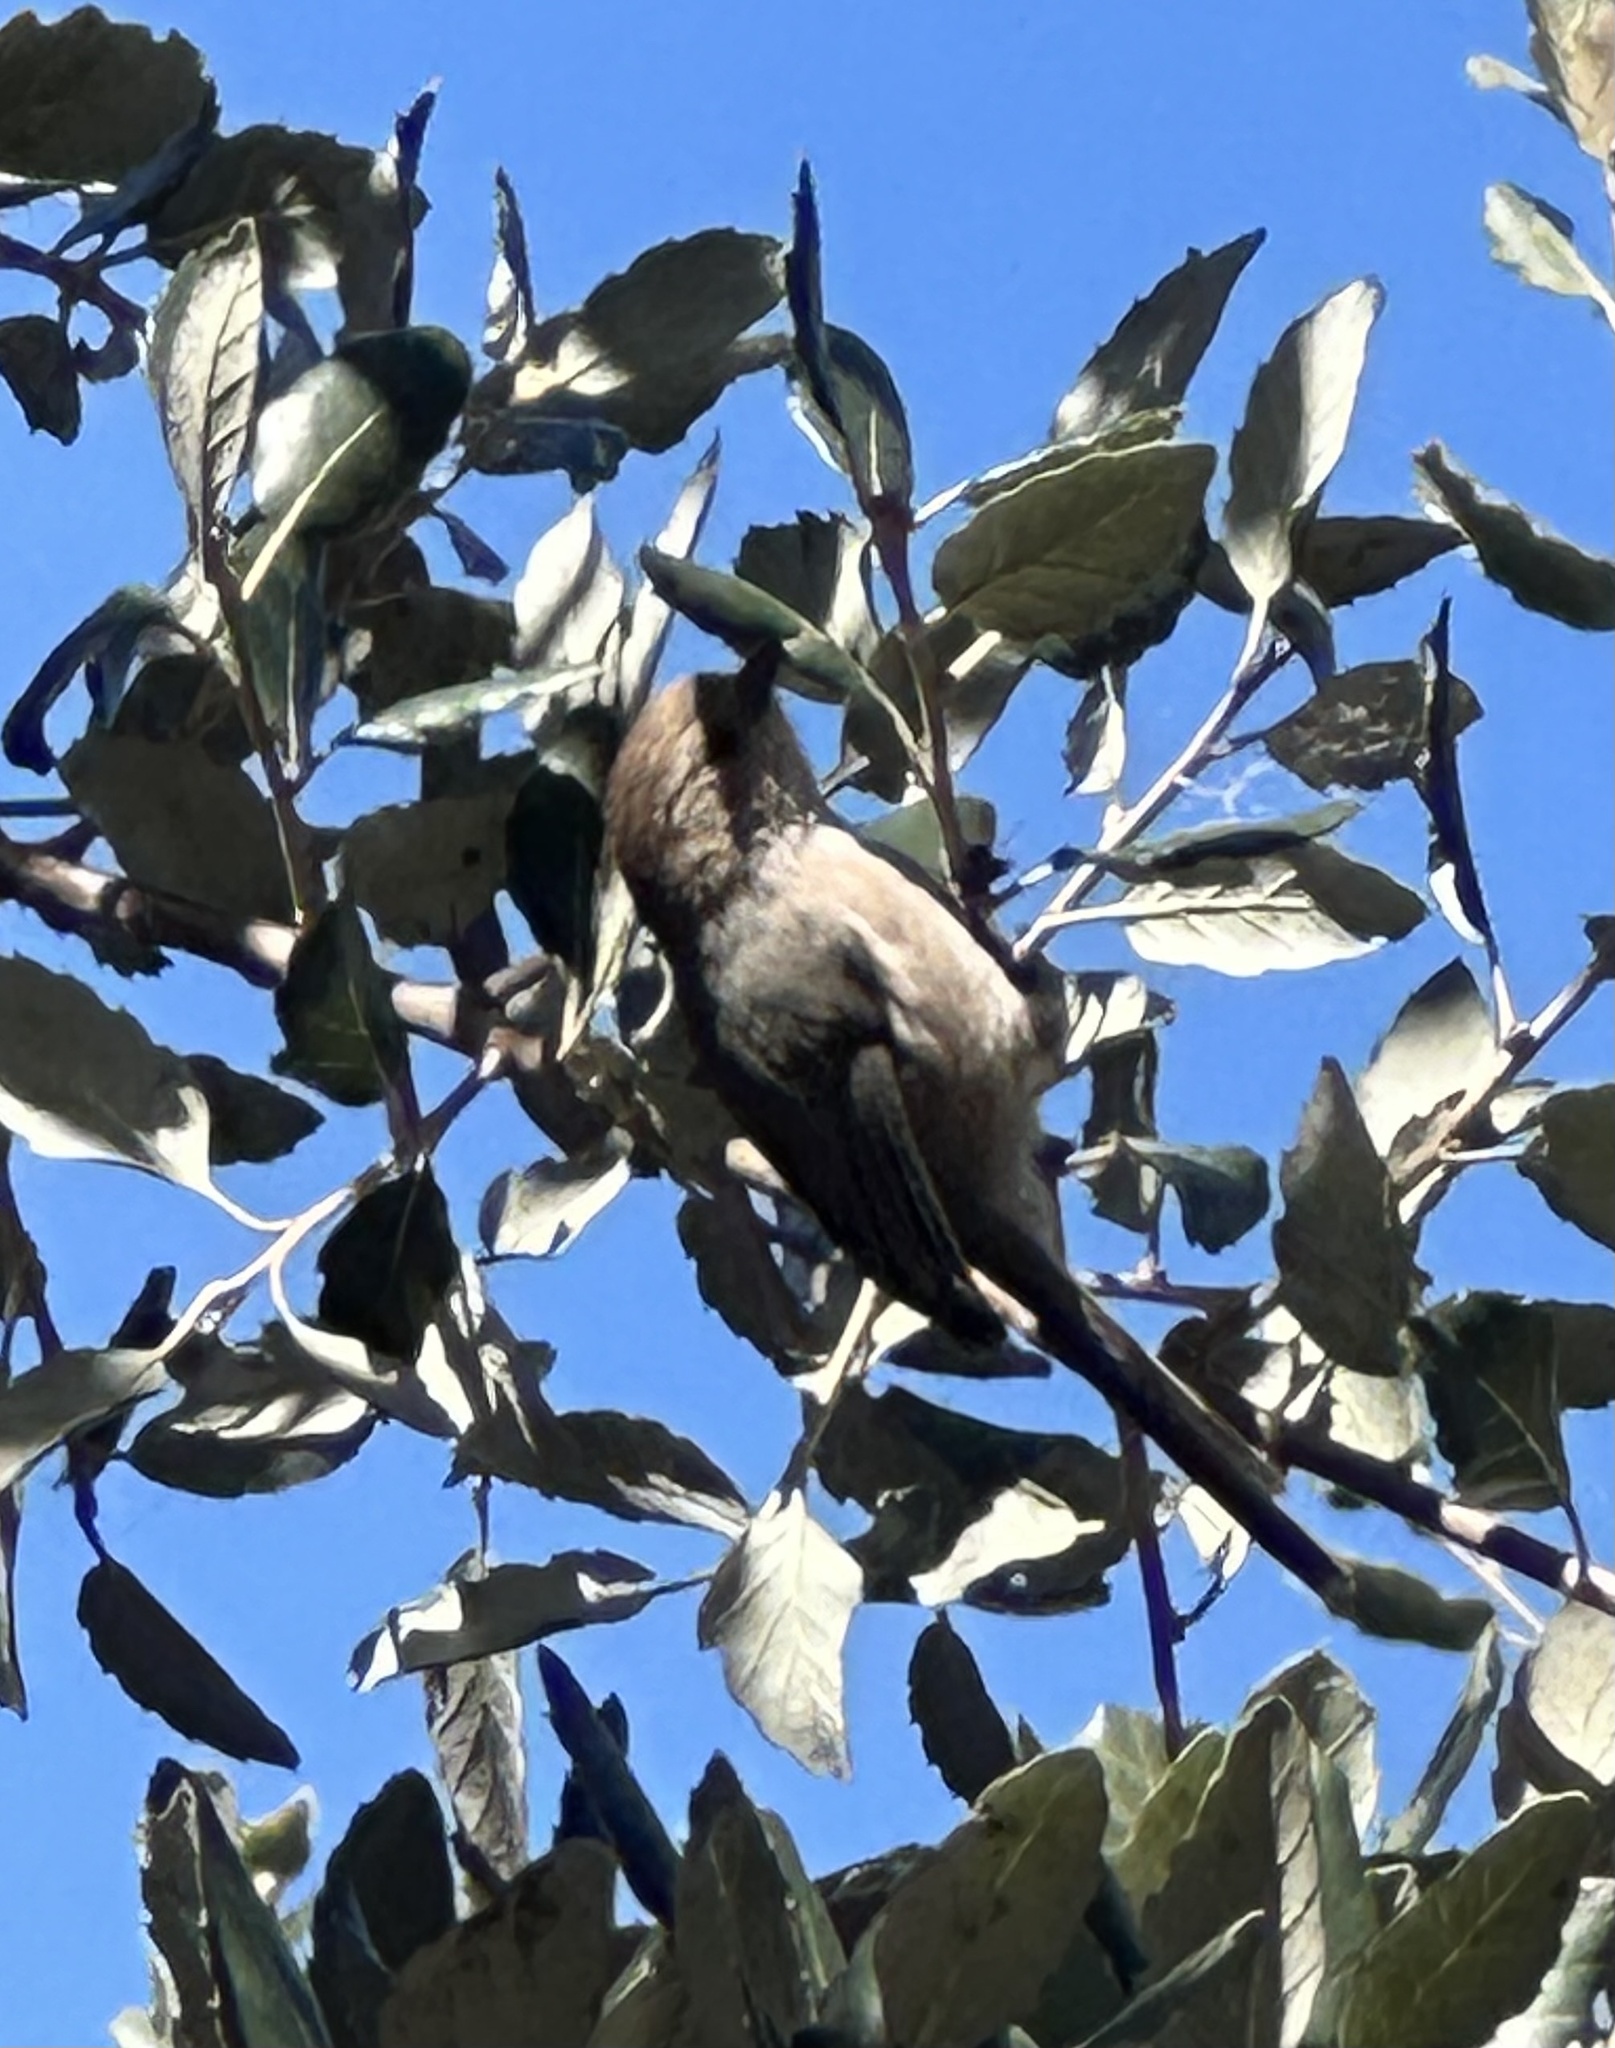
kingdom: Animalia
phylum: Chordata
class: Aves
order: Passeriformes
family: Aegithalidae
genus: Psaltriparus
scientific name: Psaltriparus minimus
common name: American bushtit
